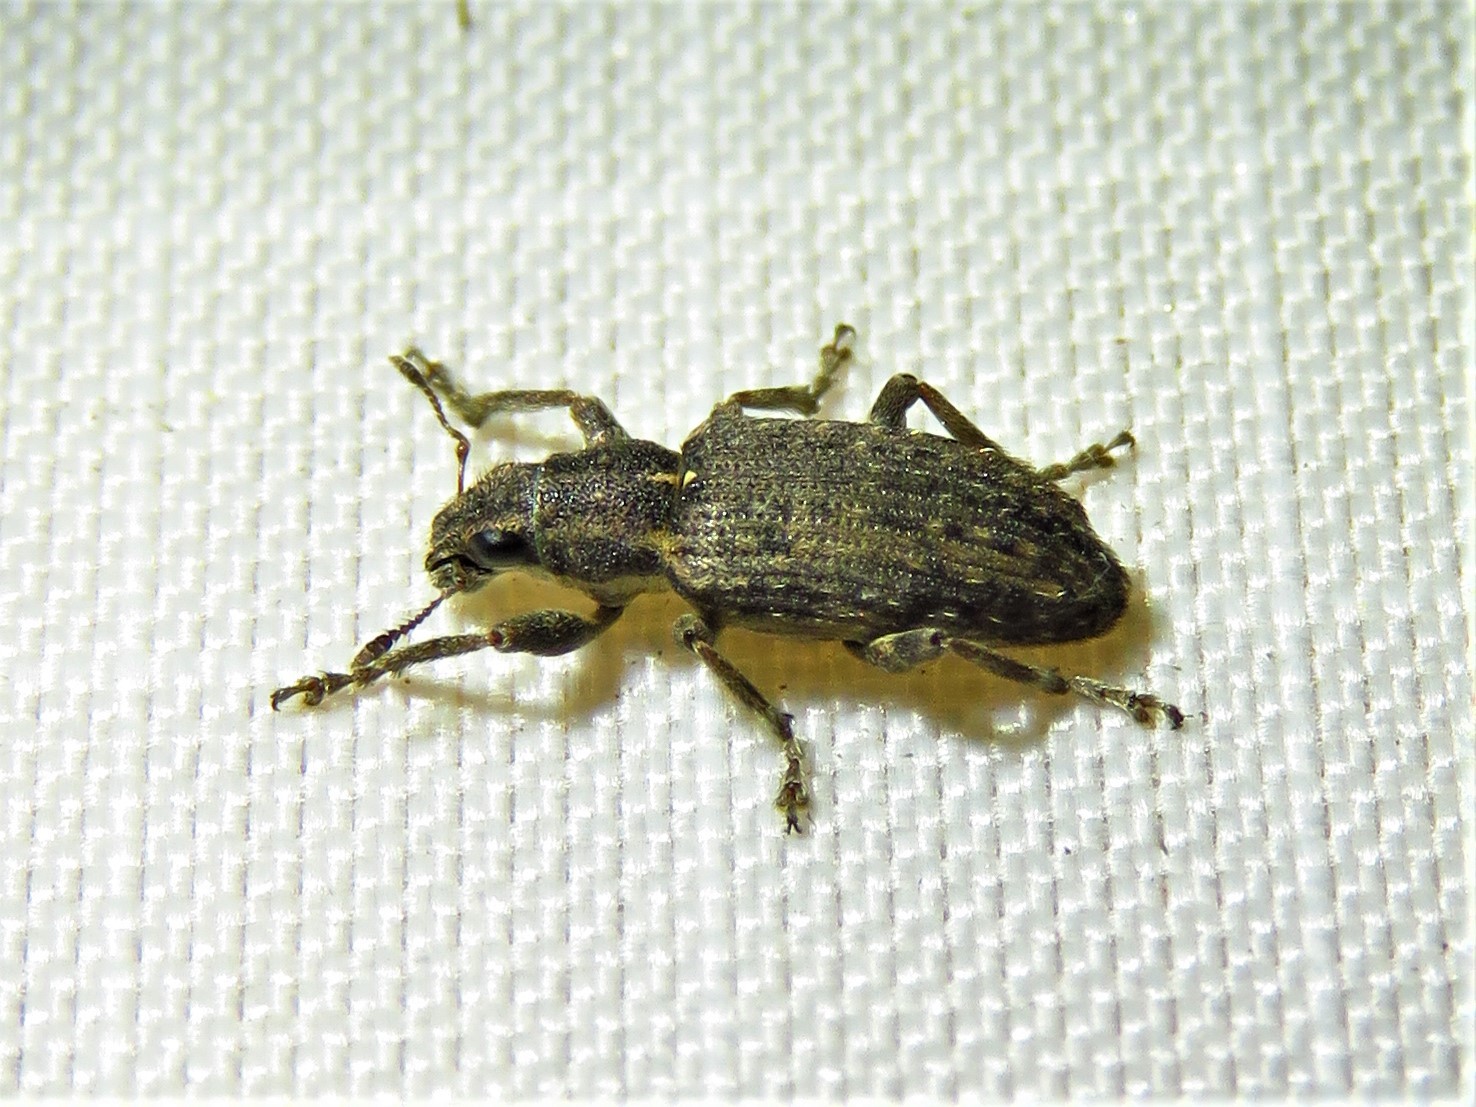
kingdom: Animalia
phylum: Arthropoda
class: Insecta
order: Coleoptera
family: Curculionidae
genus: Sitones
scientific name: Sitones californius
